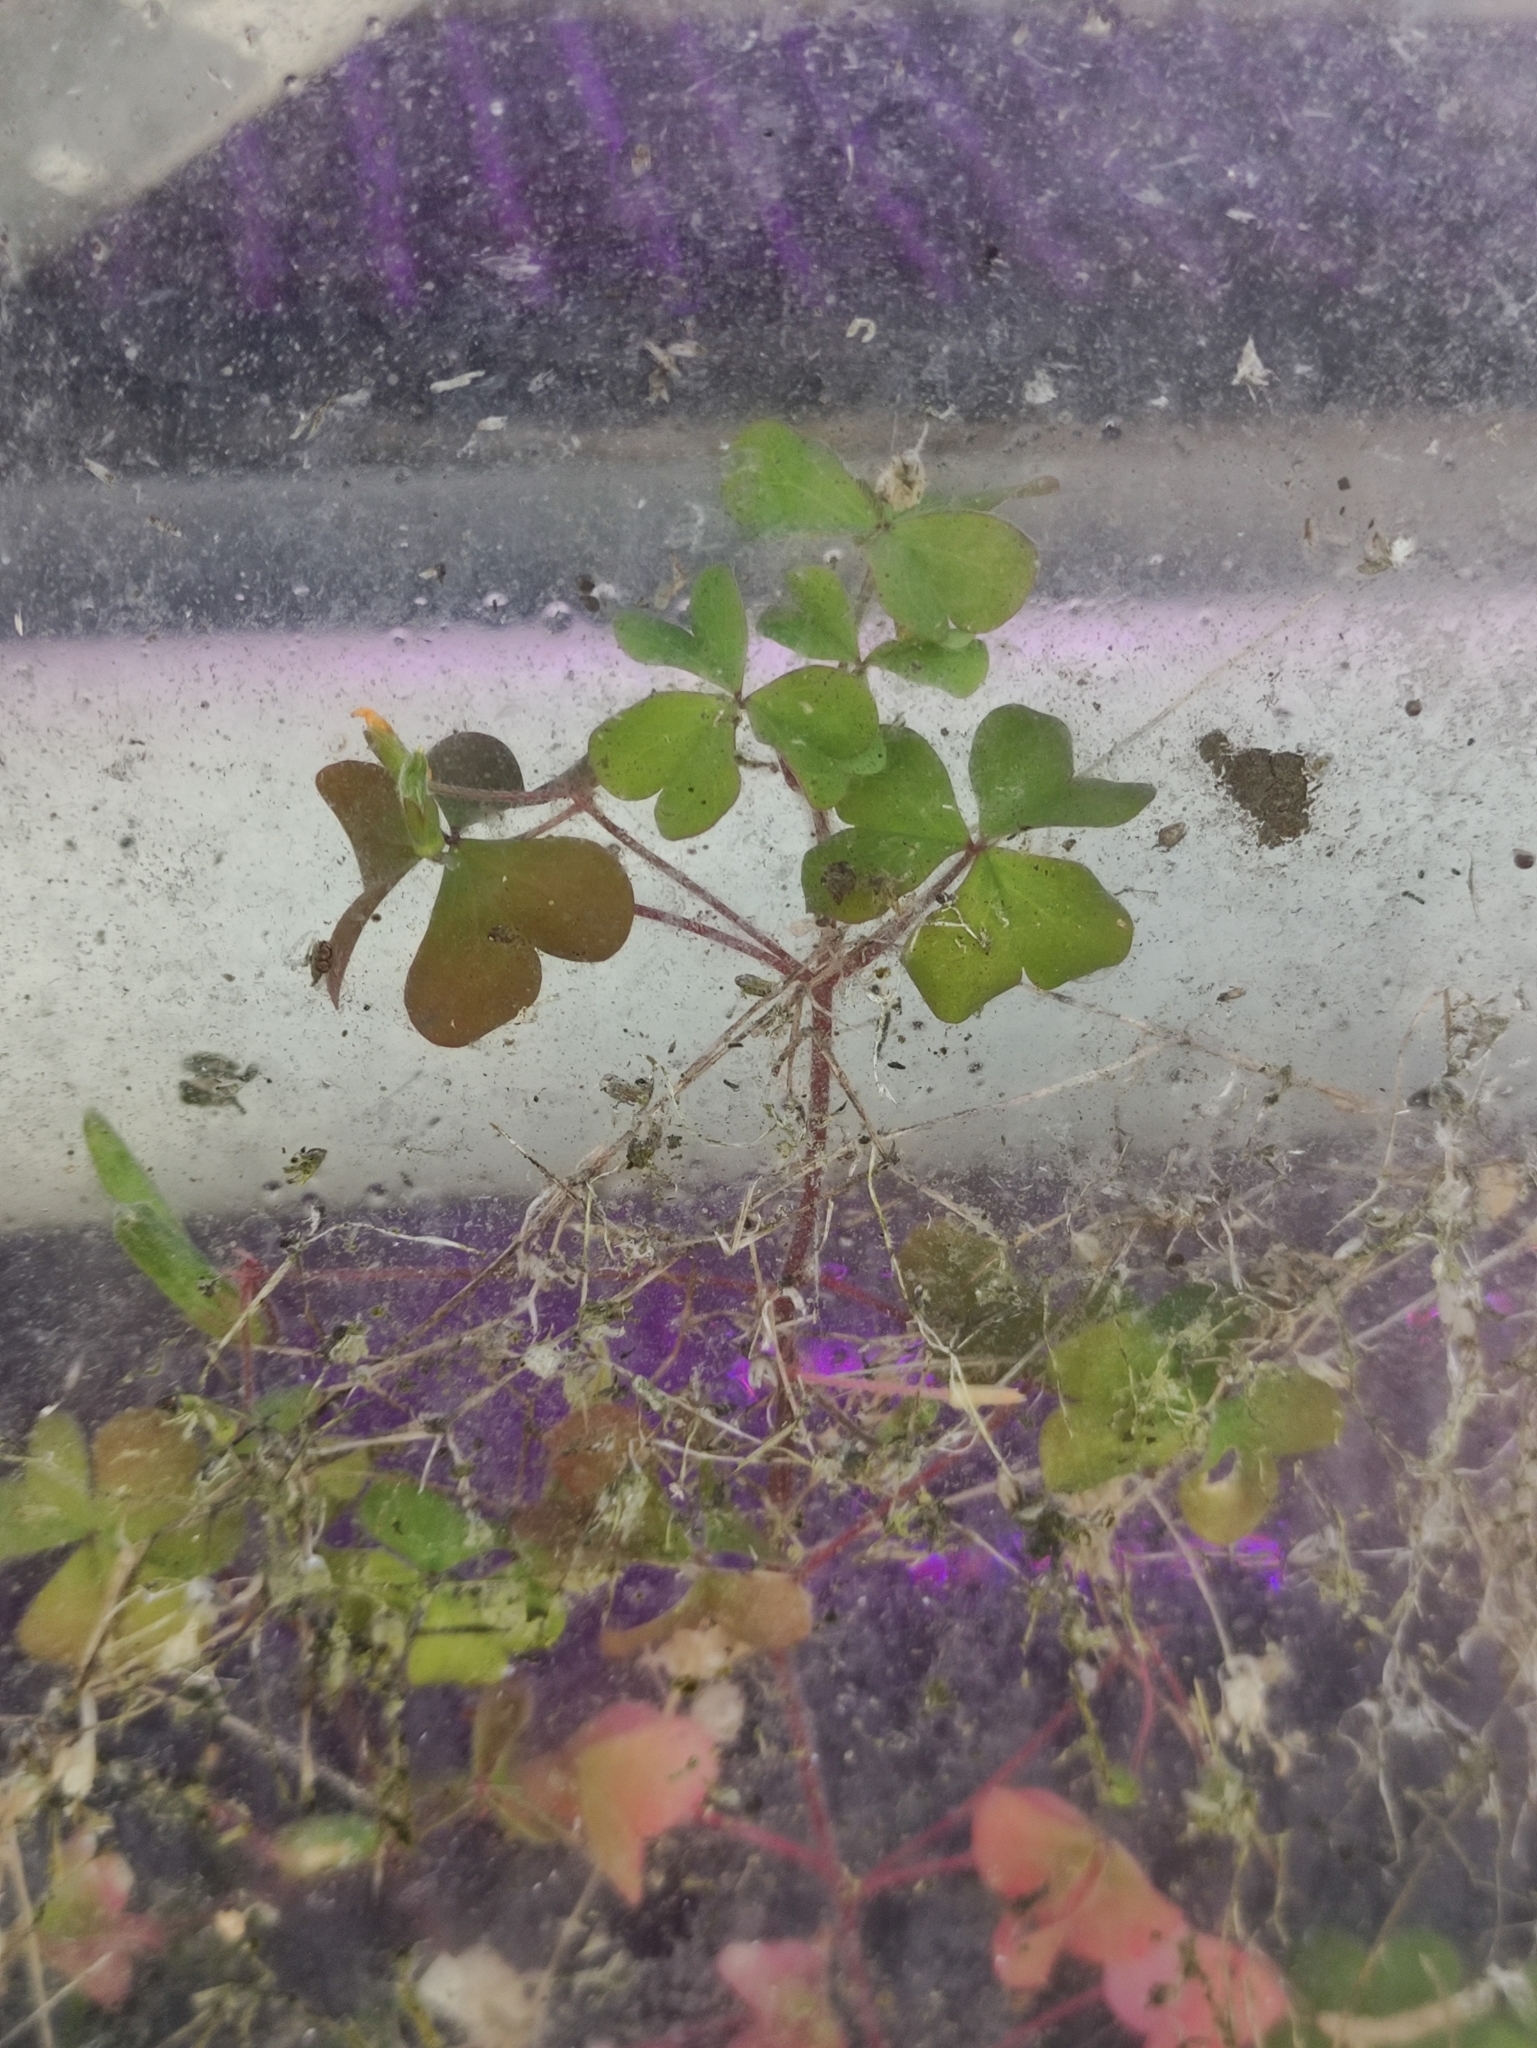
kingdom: Plantae
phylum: Tracheophyta
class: Magnoliopsida
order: Oxalidales
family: Oxalidaceae
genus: Oxalis
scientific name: Oxalis stricta
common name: Upright yellow-sorrel
